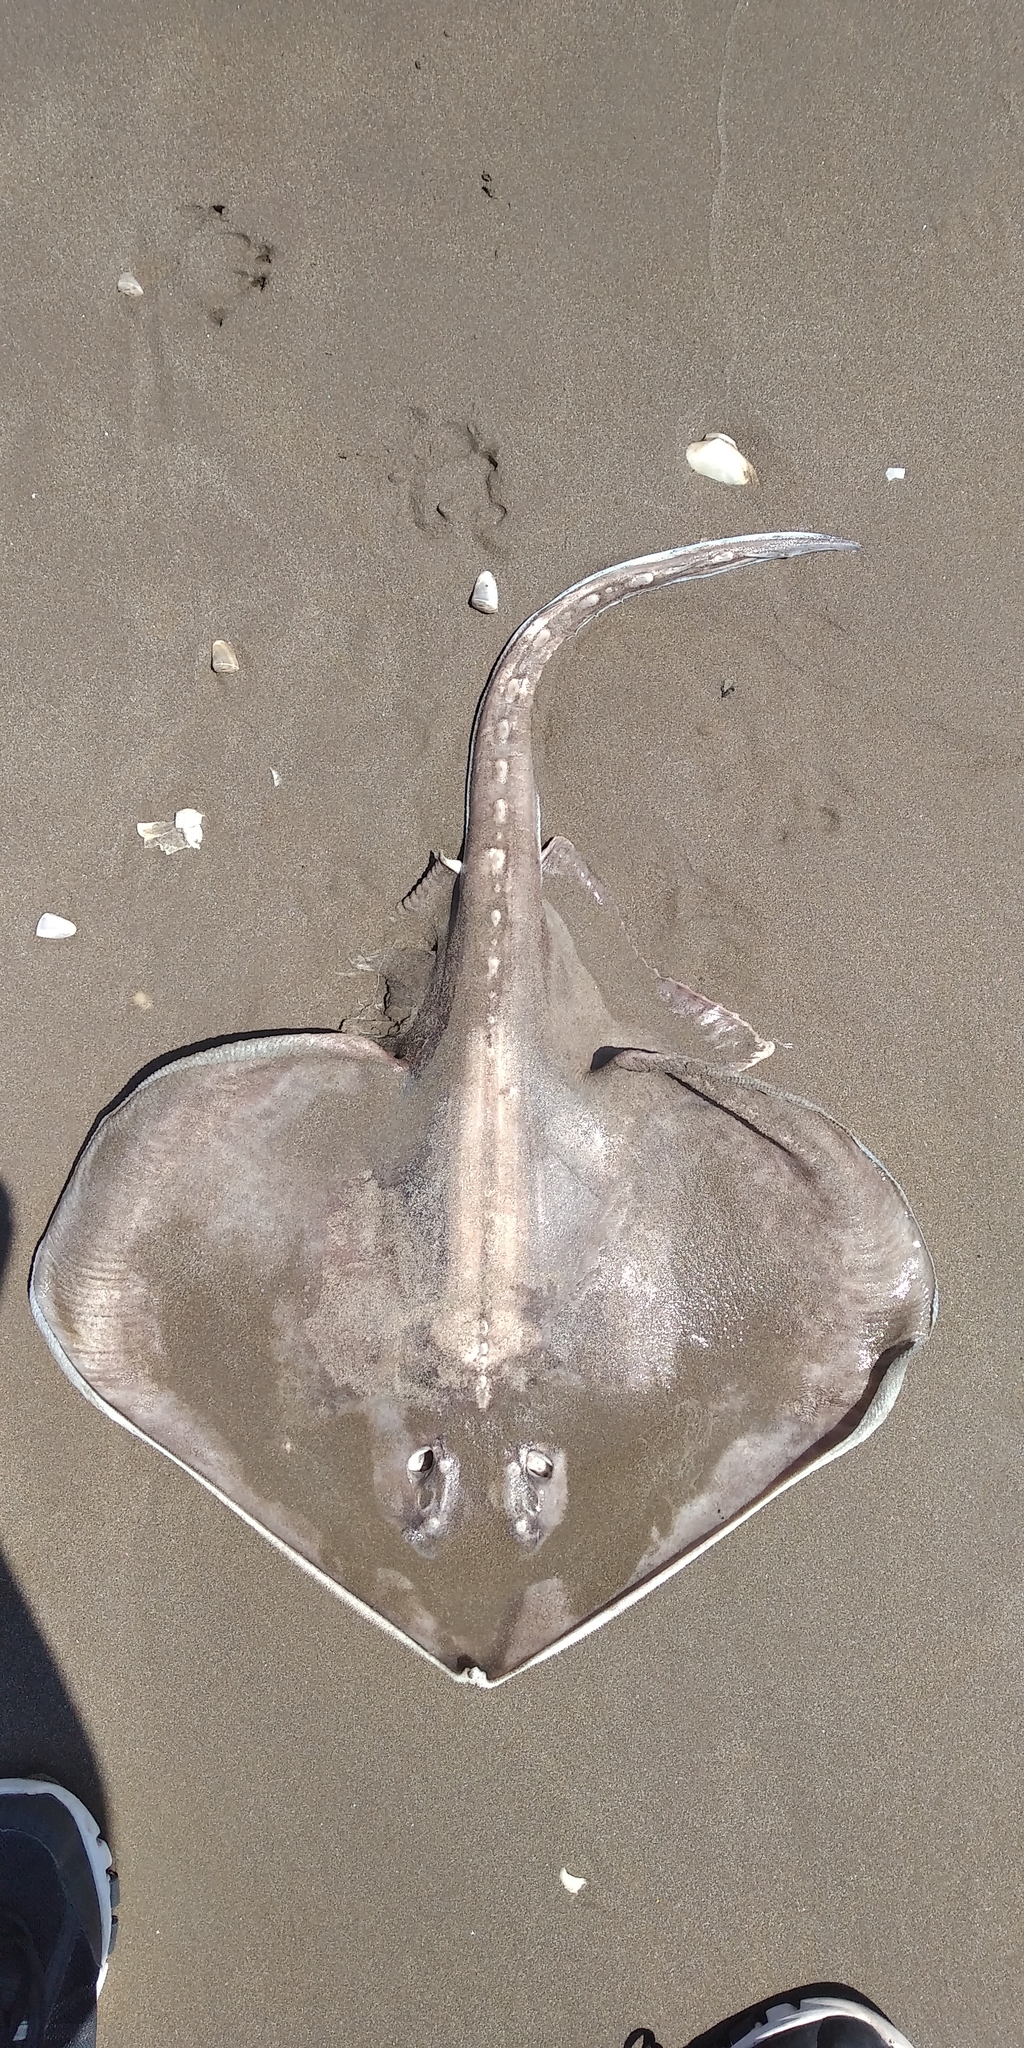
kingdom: Animalia
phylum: Chordata
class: Elasmobranchii
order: Rajiformes
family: Arhynchobatidae
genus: Sympterygia
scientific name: Sympterygia bonapartii
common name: Smallnose fanskate
